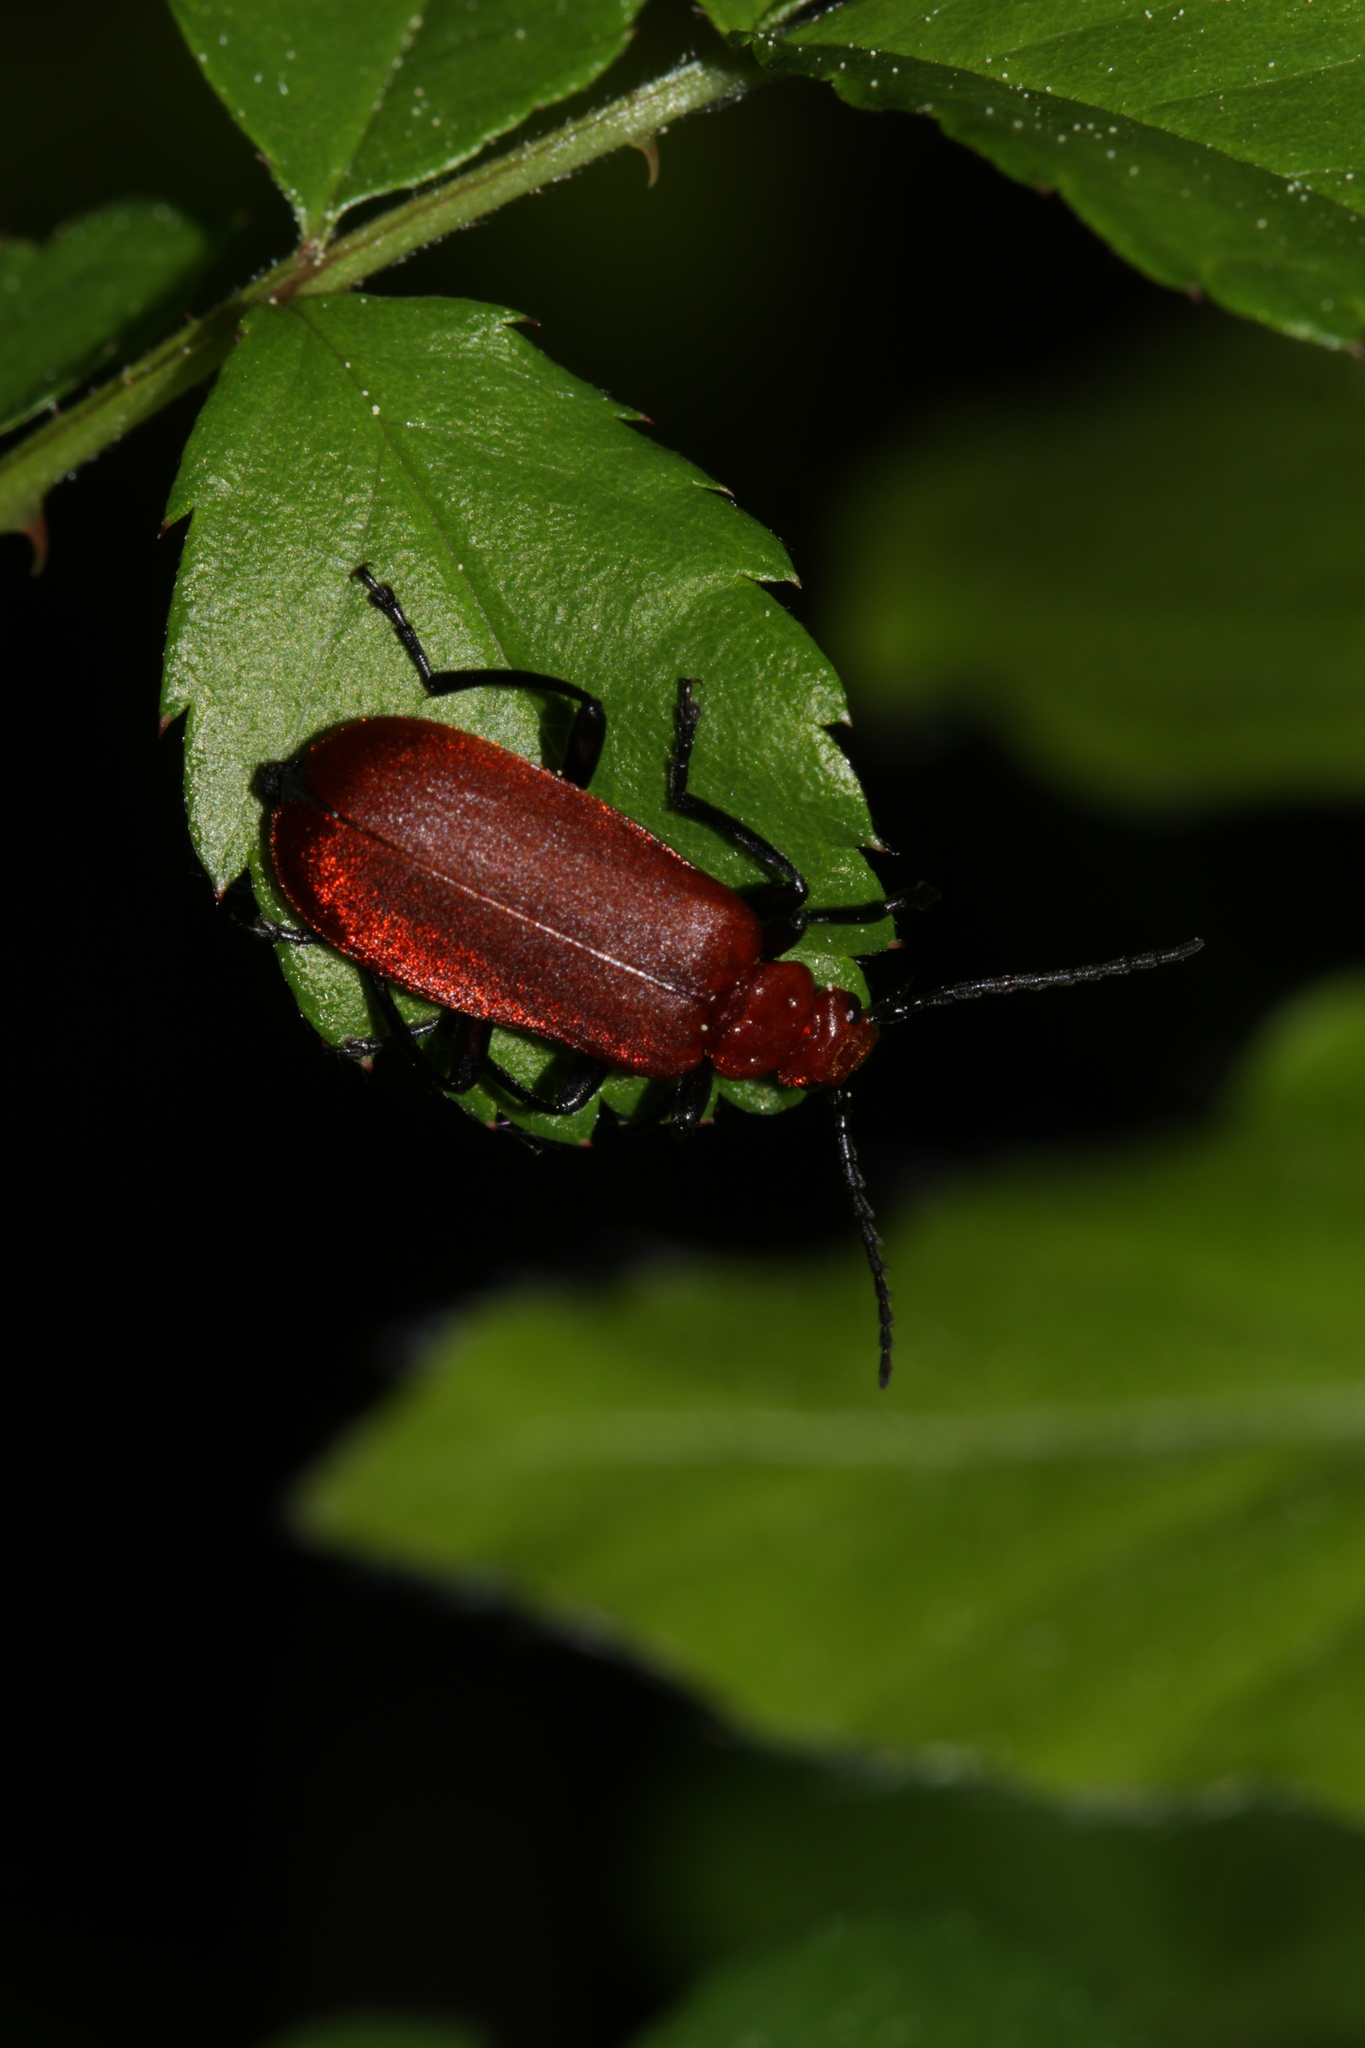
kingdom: Animalia
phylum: Arthropoda
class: Insecta
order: Coleoptera
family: Pyrochroidae
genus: Pyrochroa
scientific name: Pyrochroa serraticornis
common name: Red-headed cardinal beetle
